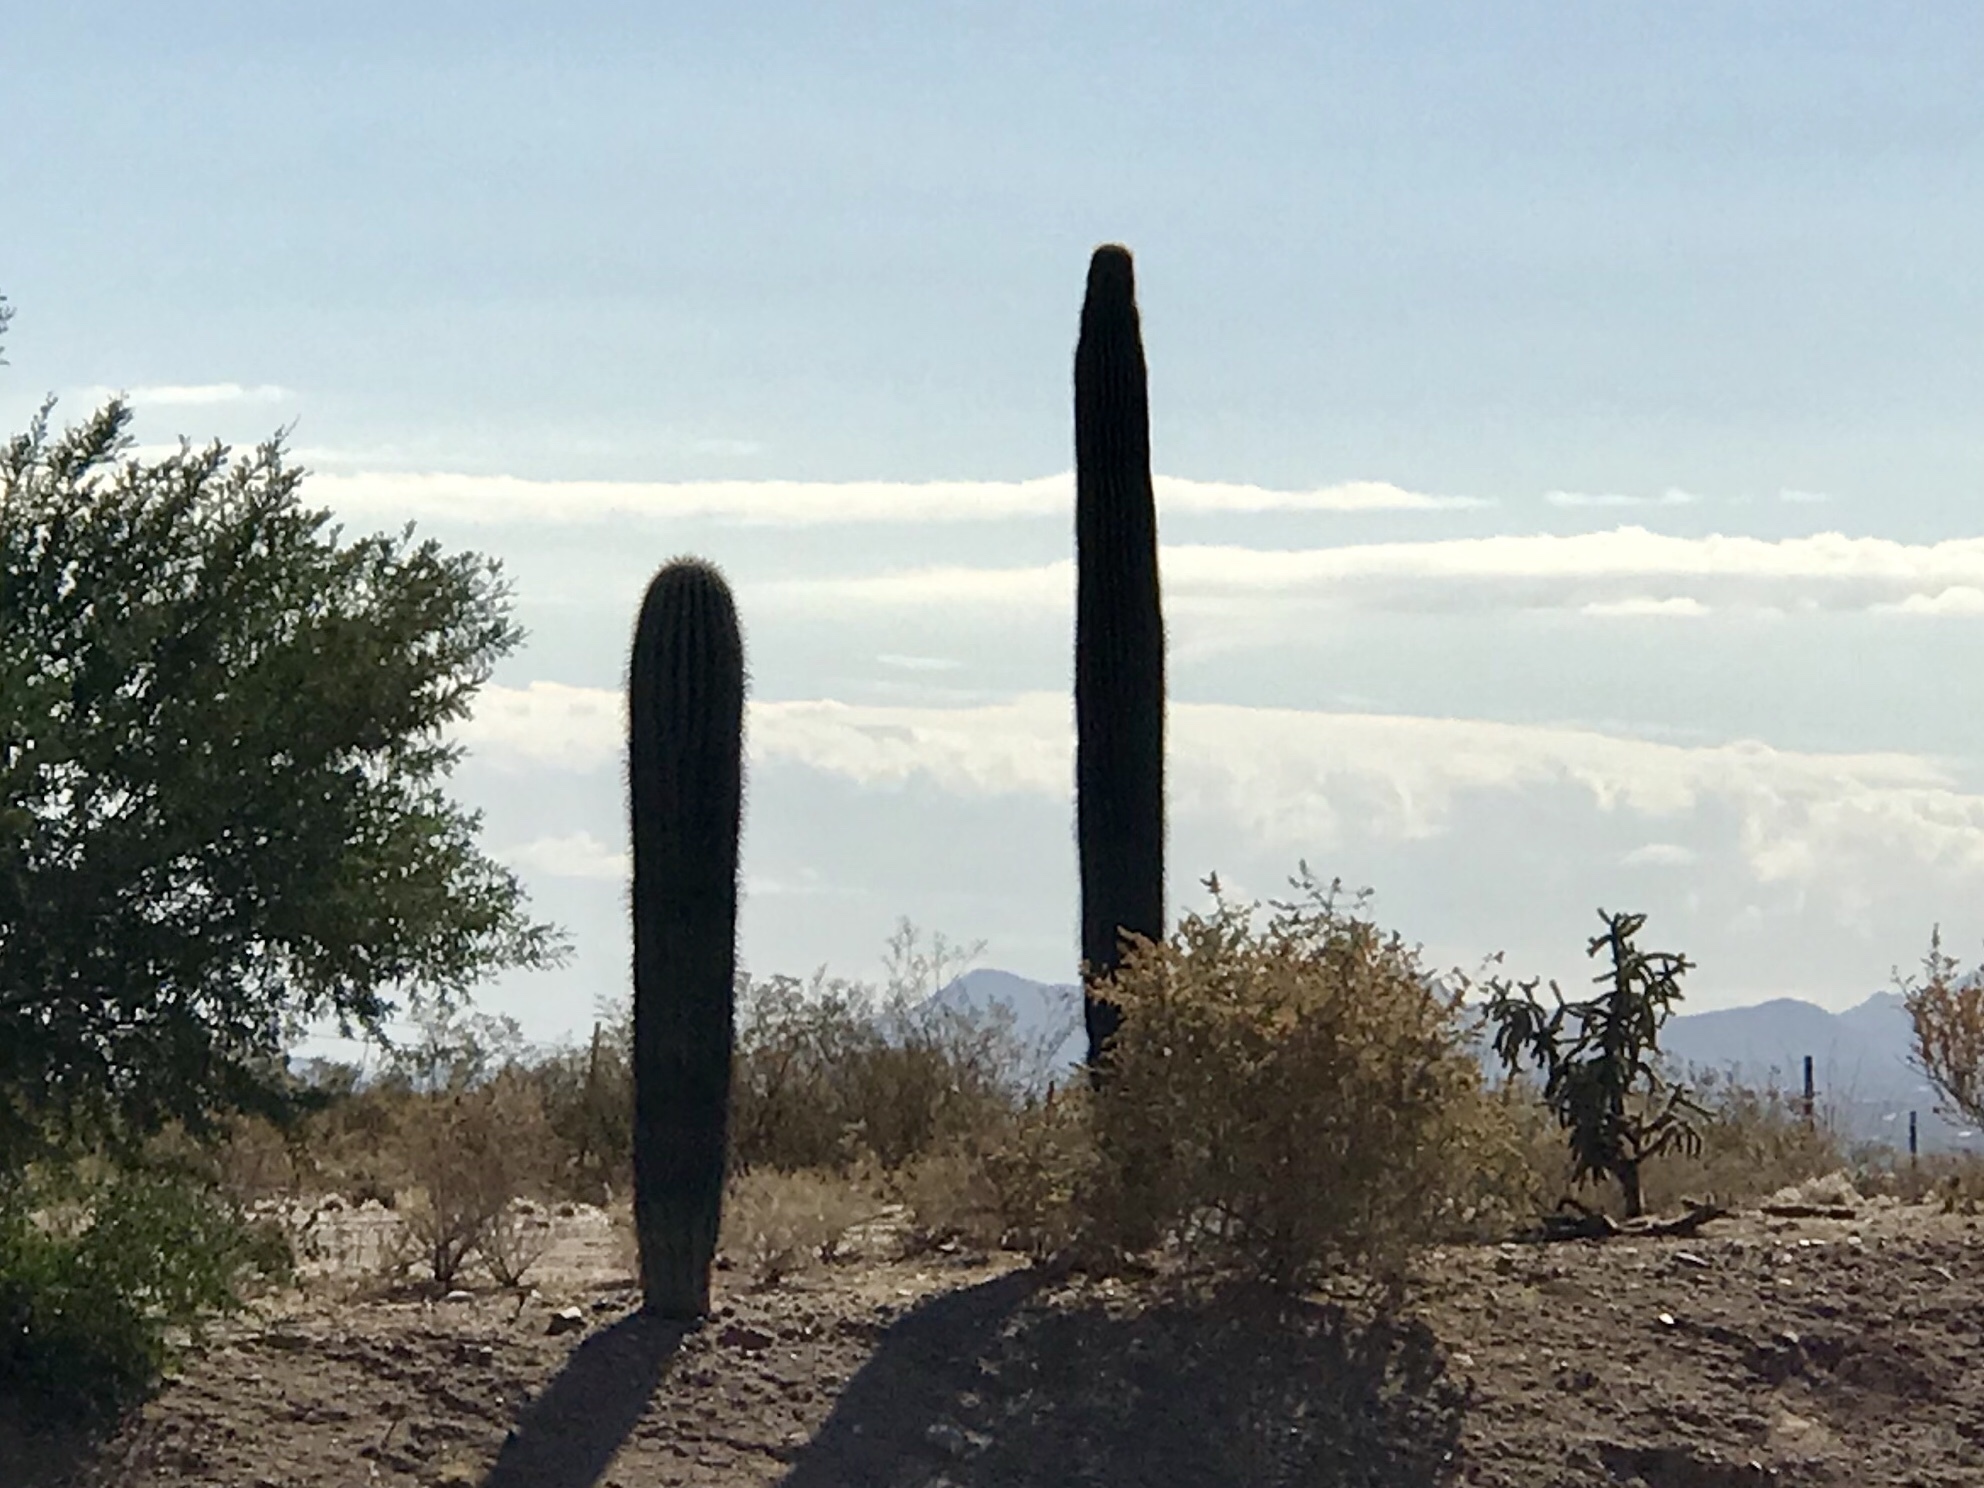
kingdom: Plantae
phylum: Tracheophyta
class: Magnoliopsida
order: Caryophyllales
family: Cactaceae
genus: Carnegiea
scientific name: Carnegiea gigantea
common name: Saguaro
